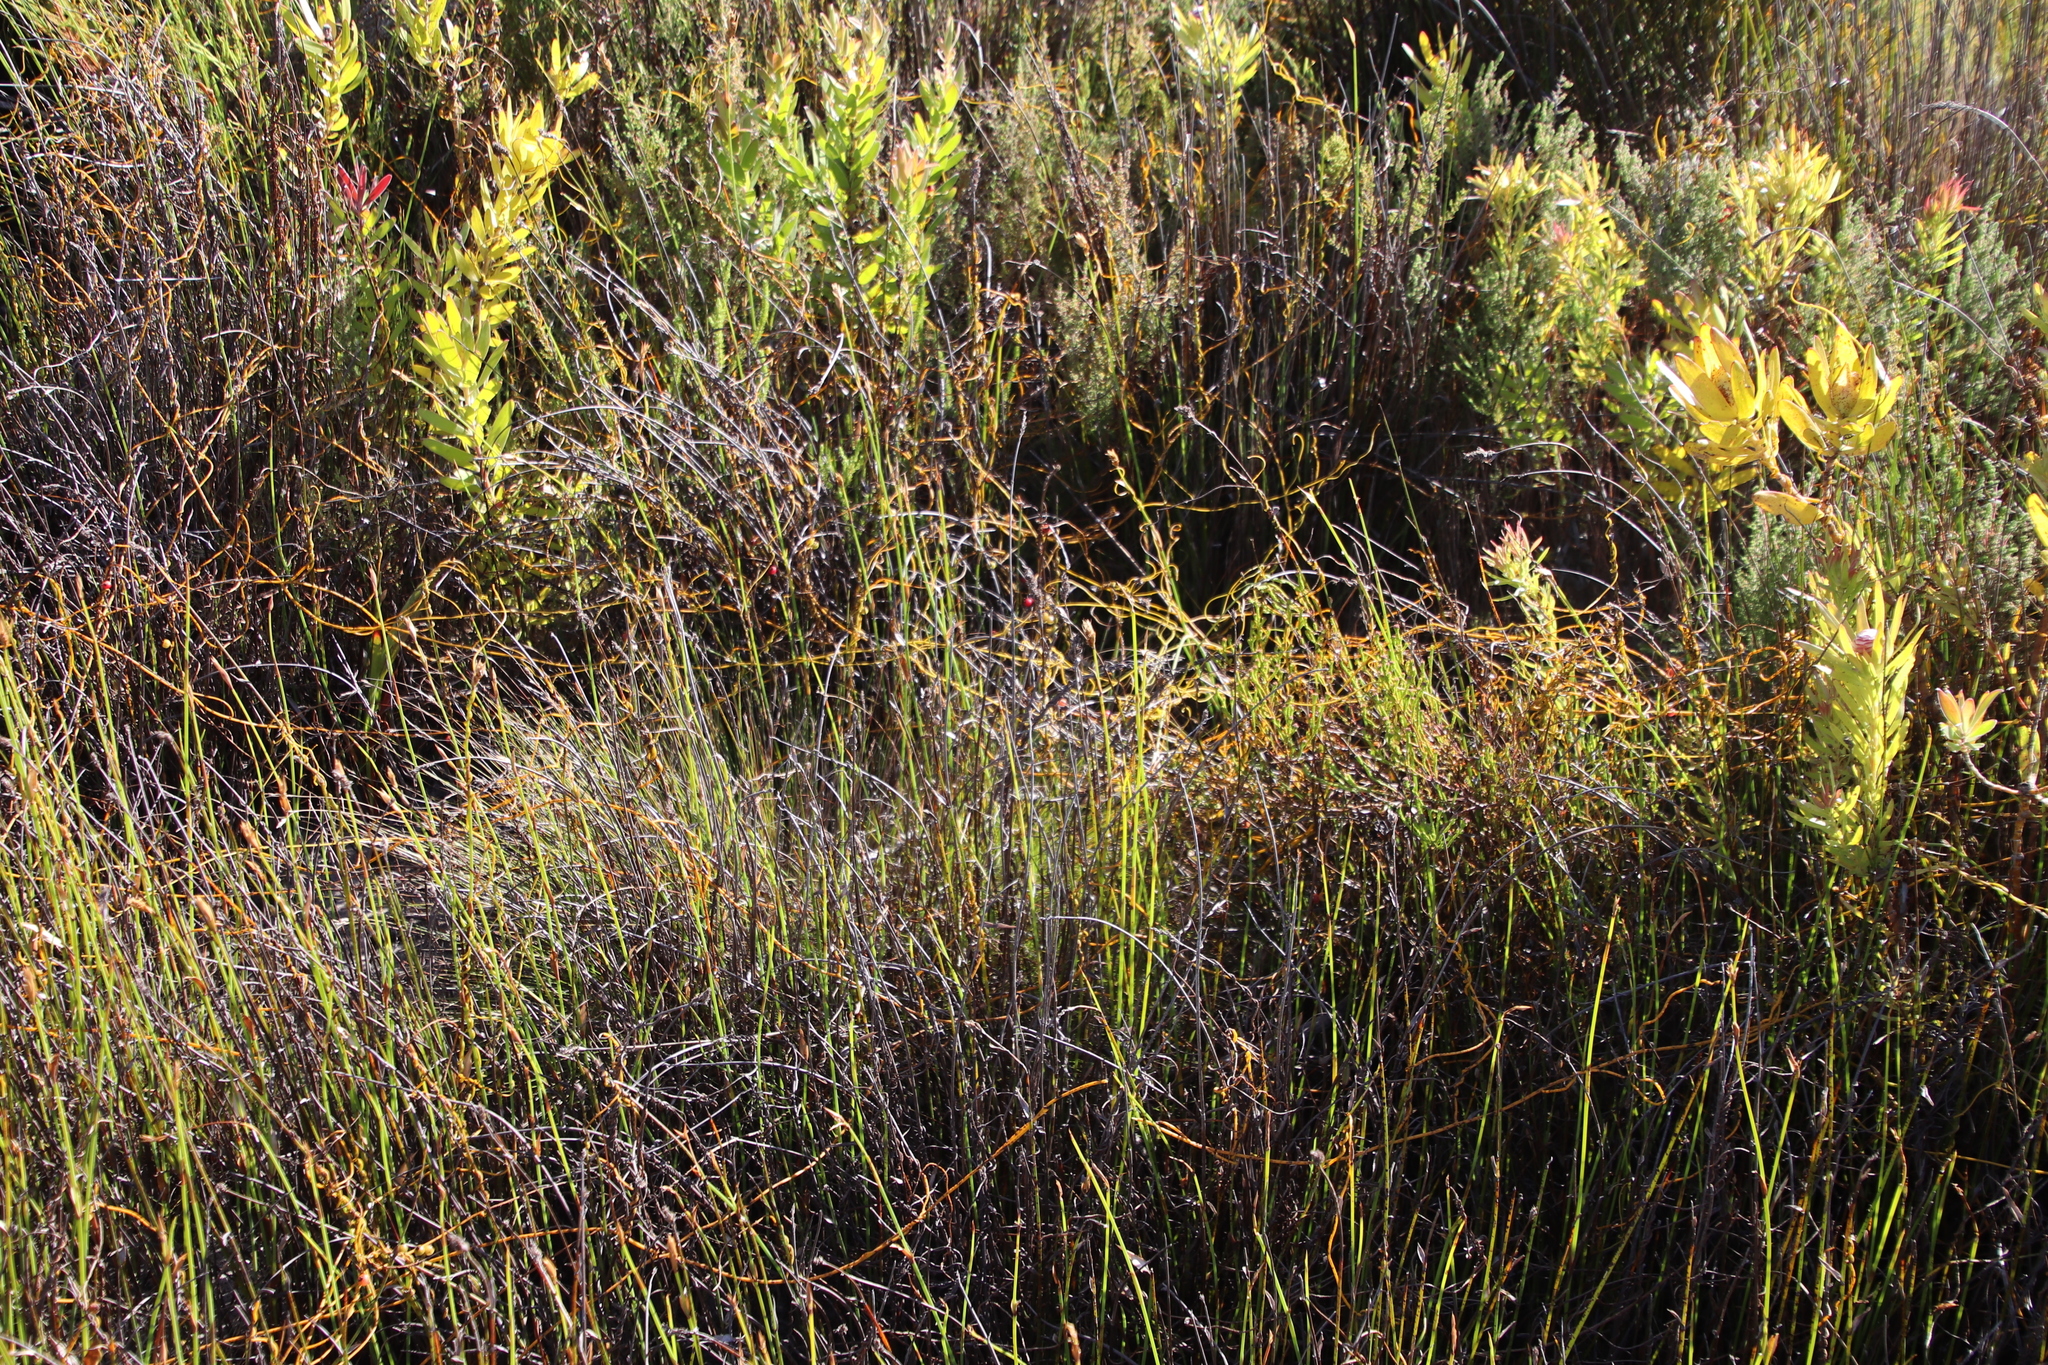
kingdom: Plantae
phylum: Tracheophyta
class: Magnoliopsida
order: Laurales
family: Lauraceae
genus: Cassytha
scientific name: Cassytha ciliolata
